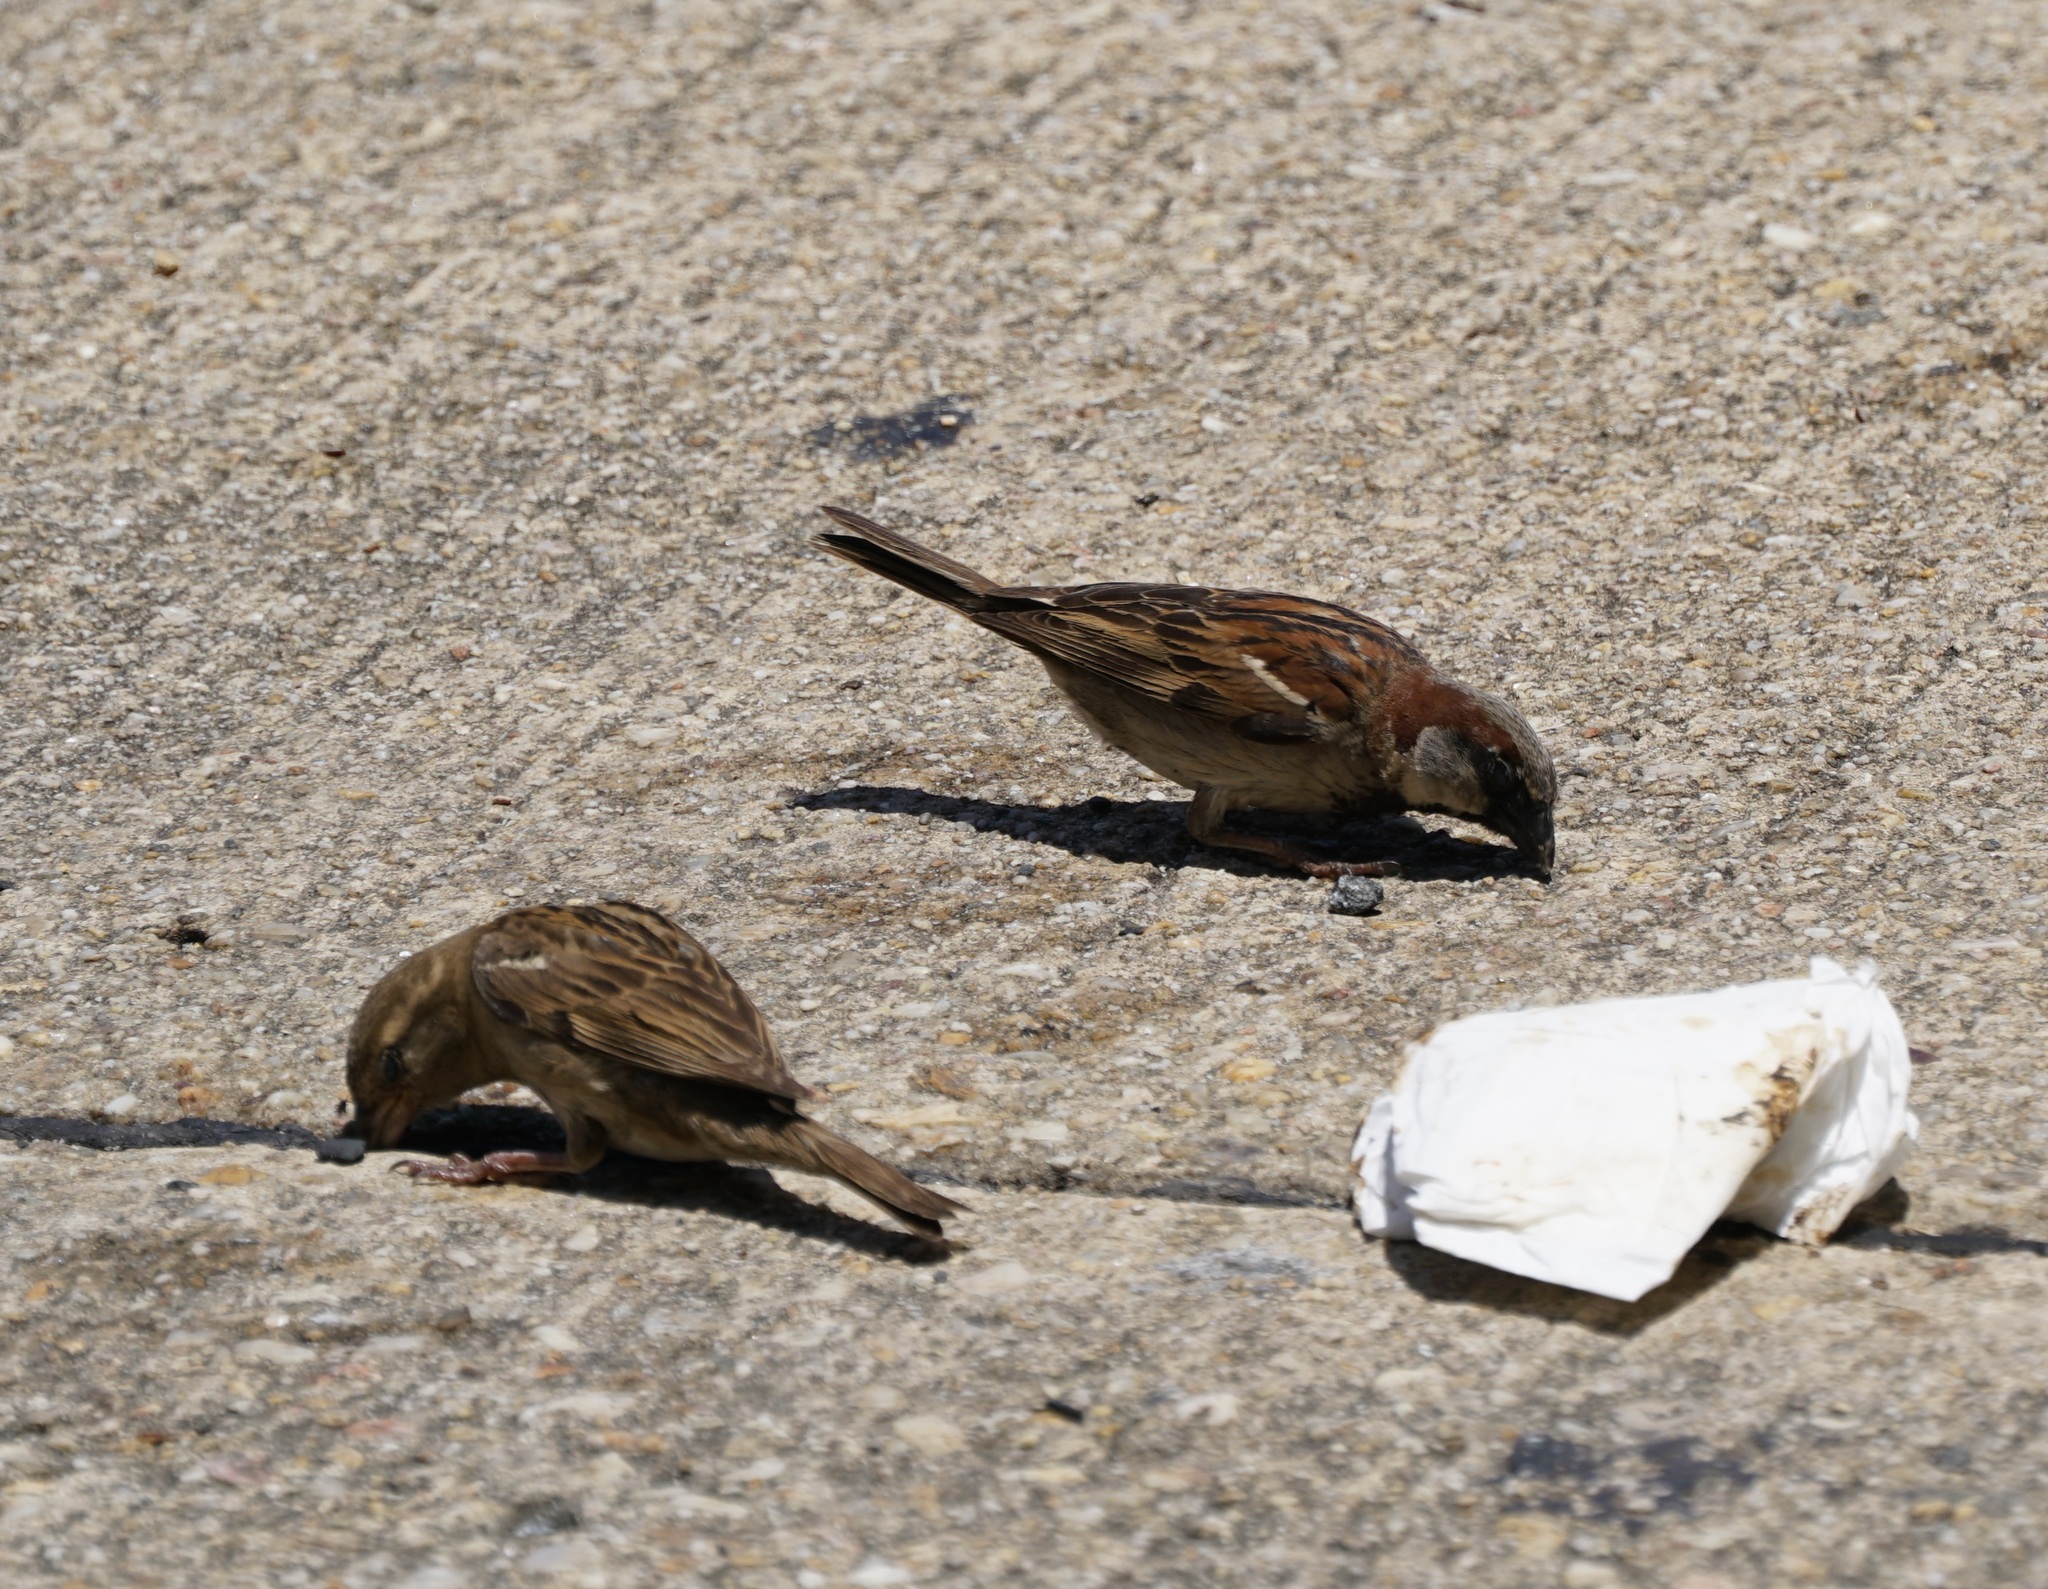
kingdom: Animalia
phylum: Chordata
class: Aves
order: Passeriformes
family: Passeridae
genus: Passer
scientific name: Passer domesticus
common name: House sparrow
